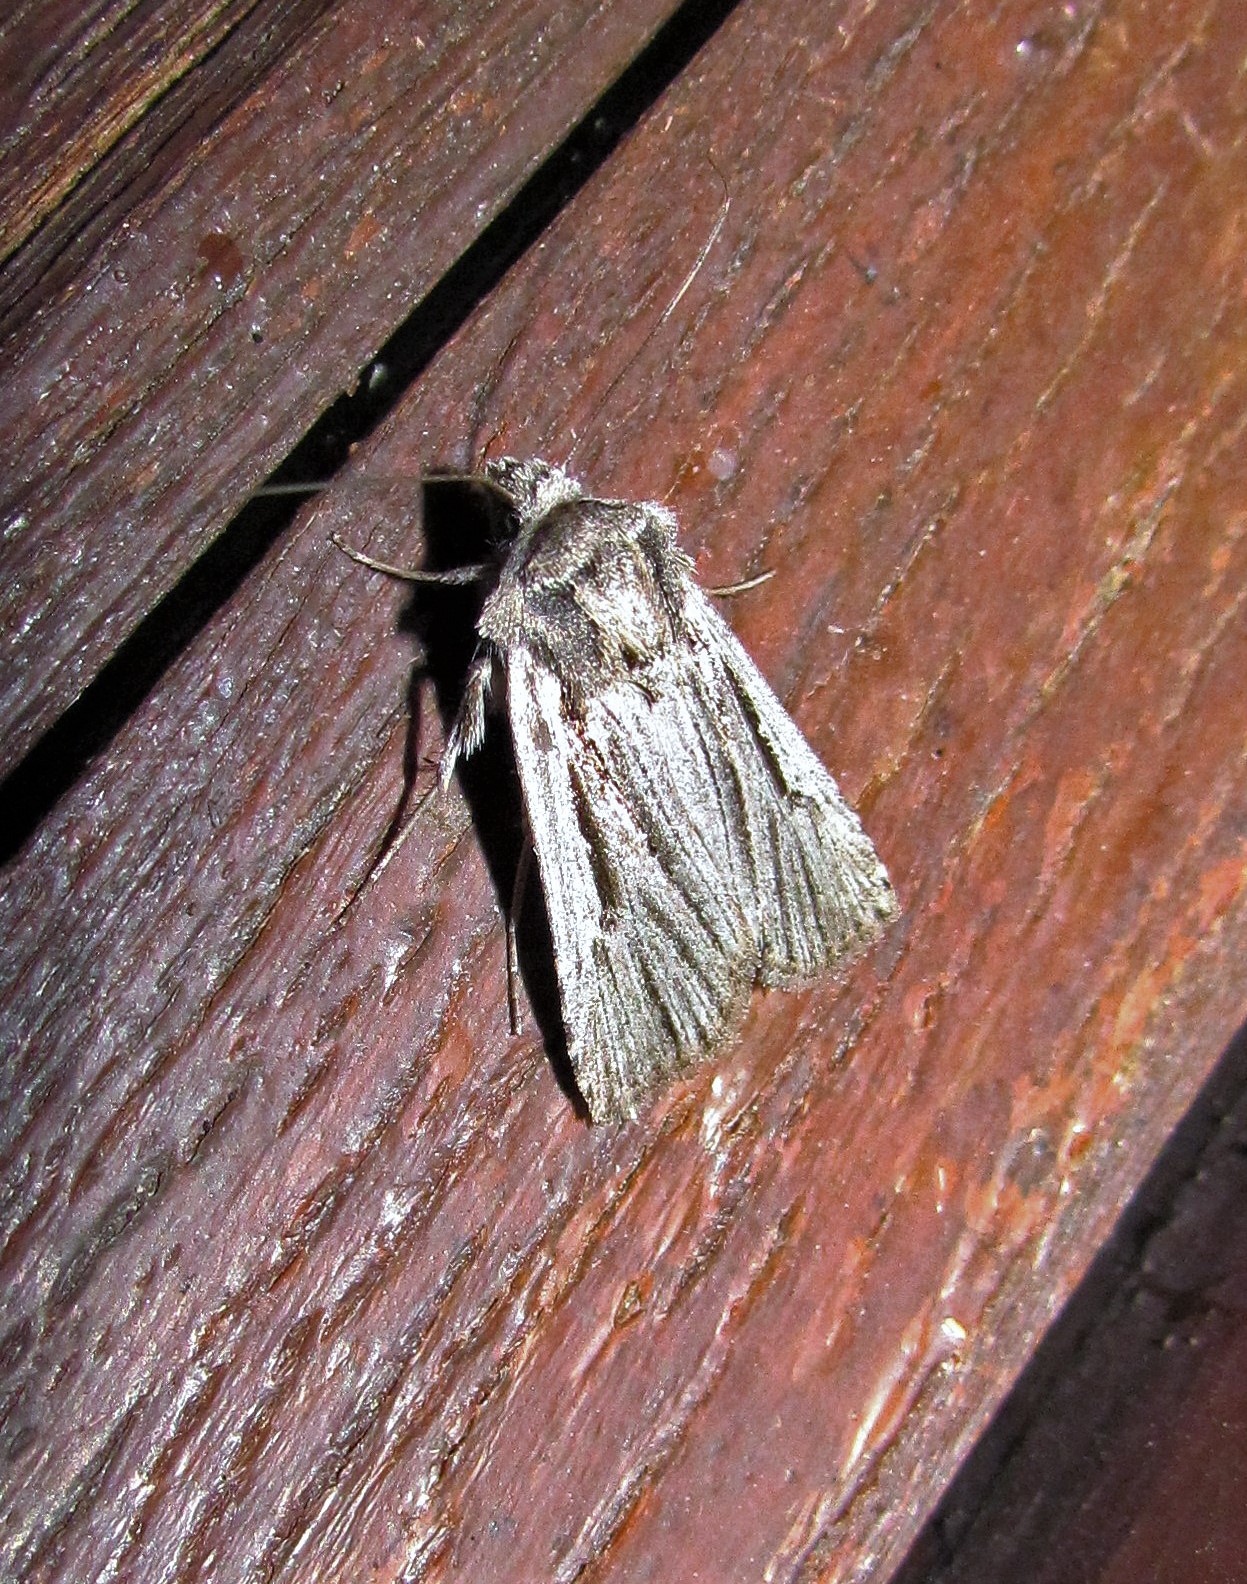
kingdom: Animalia
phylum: Arthropoda
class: Insecta
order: Lepidoptera
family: Noctuidae
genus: Scania
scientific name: Scania
